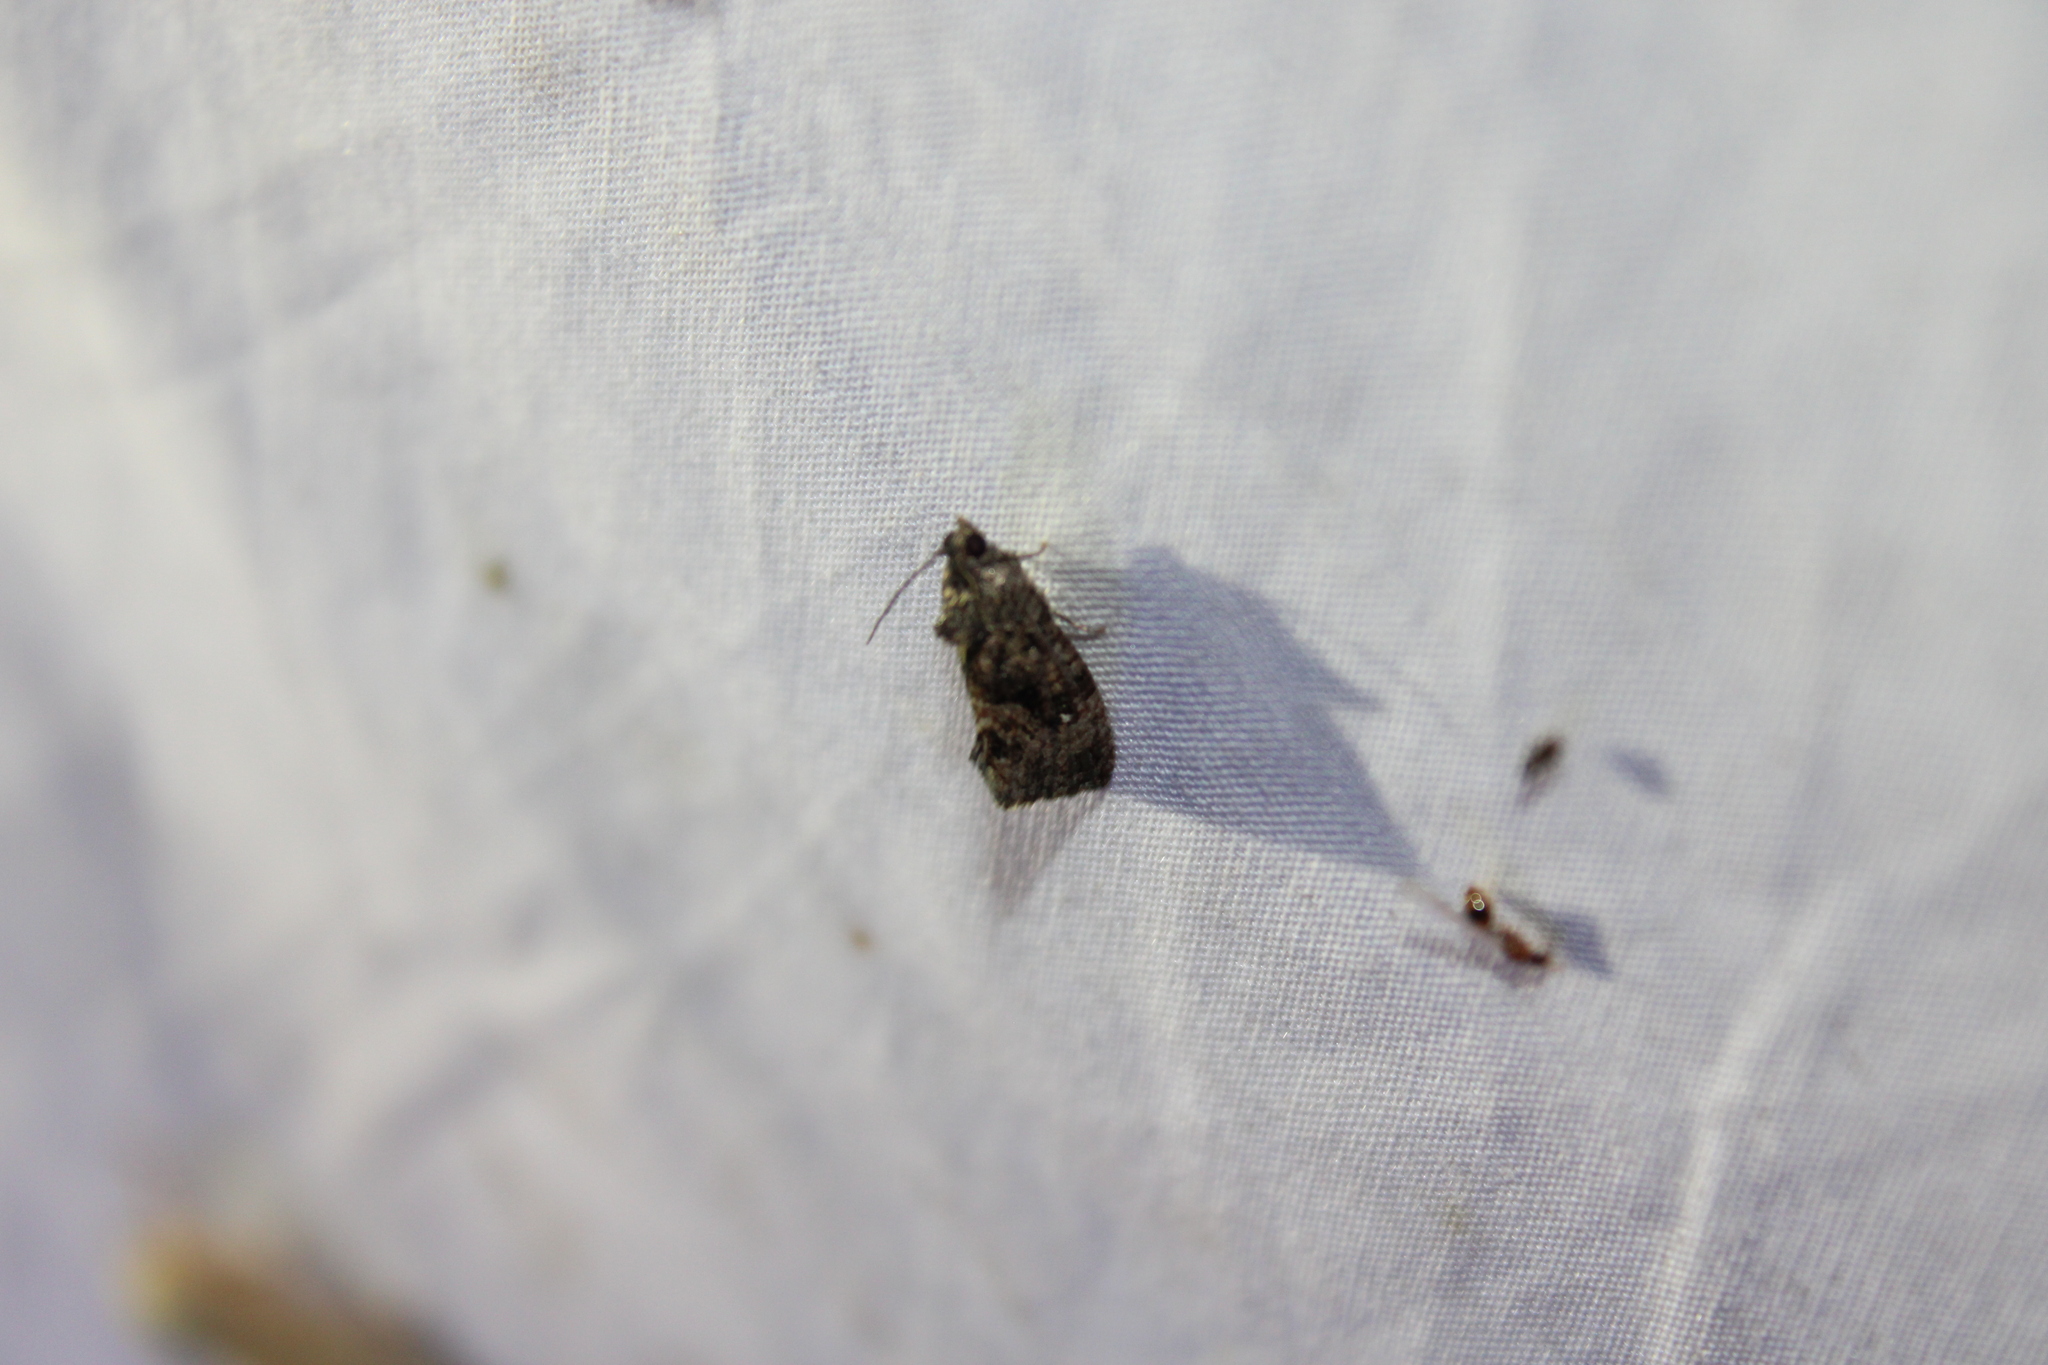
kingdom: Animalia
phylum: Arthropoda
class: Insecta
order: Lepidoptera
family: Tortricidae
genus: Gymnandrosoma
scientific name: Gymnandrosoma punctidiscanum
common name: Dotted ecdytolopha moth
